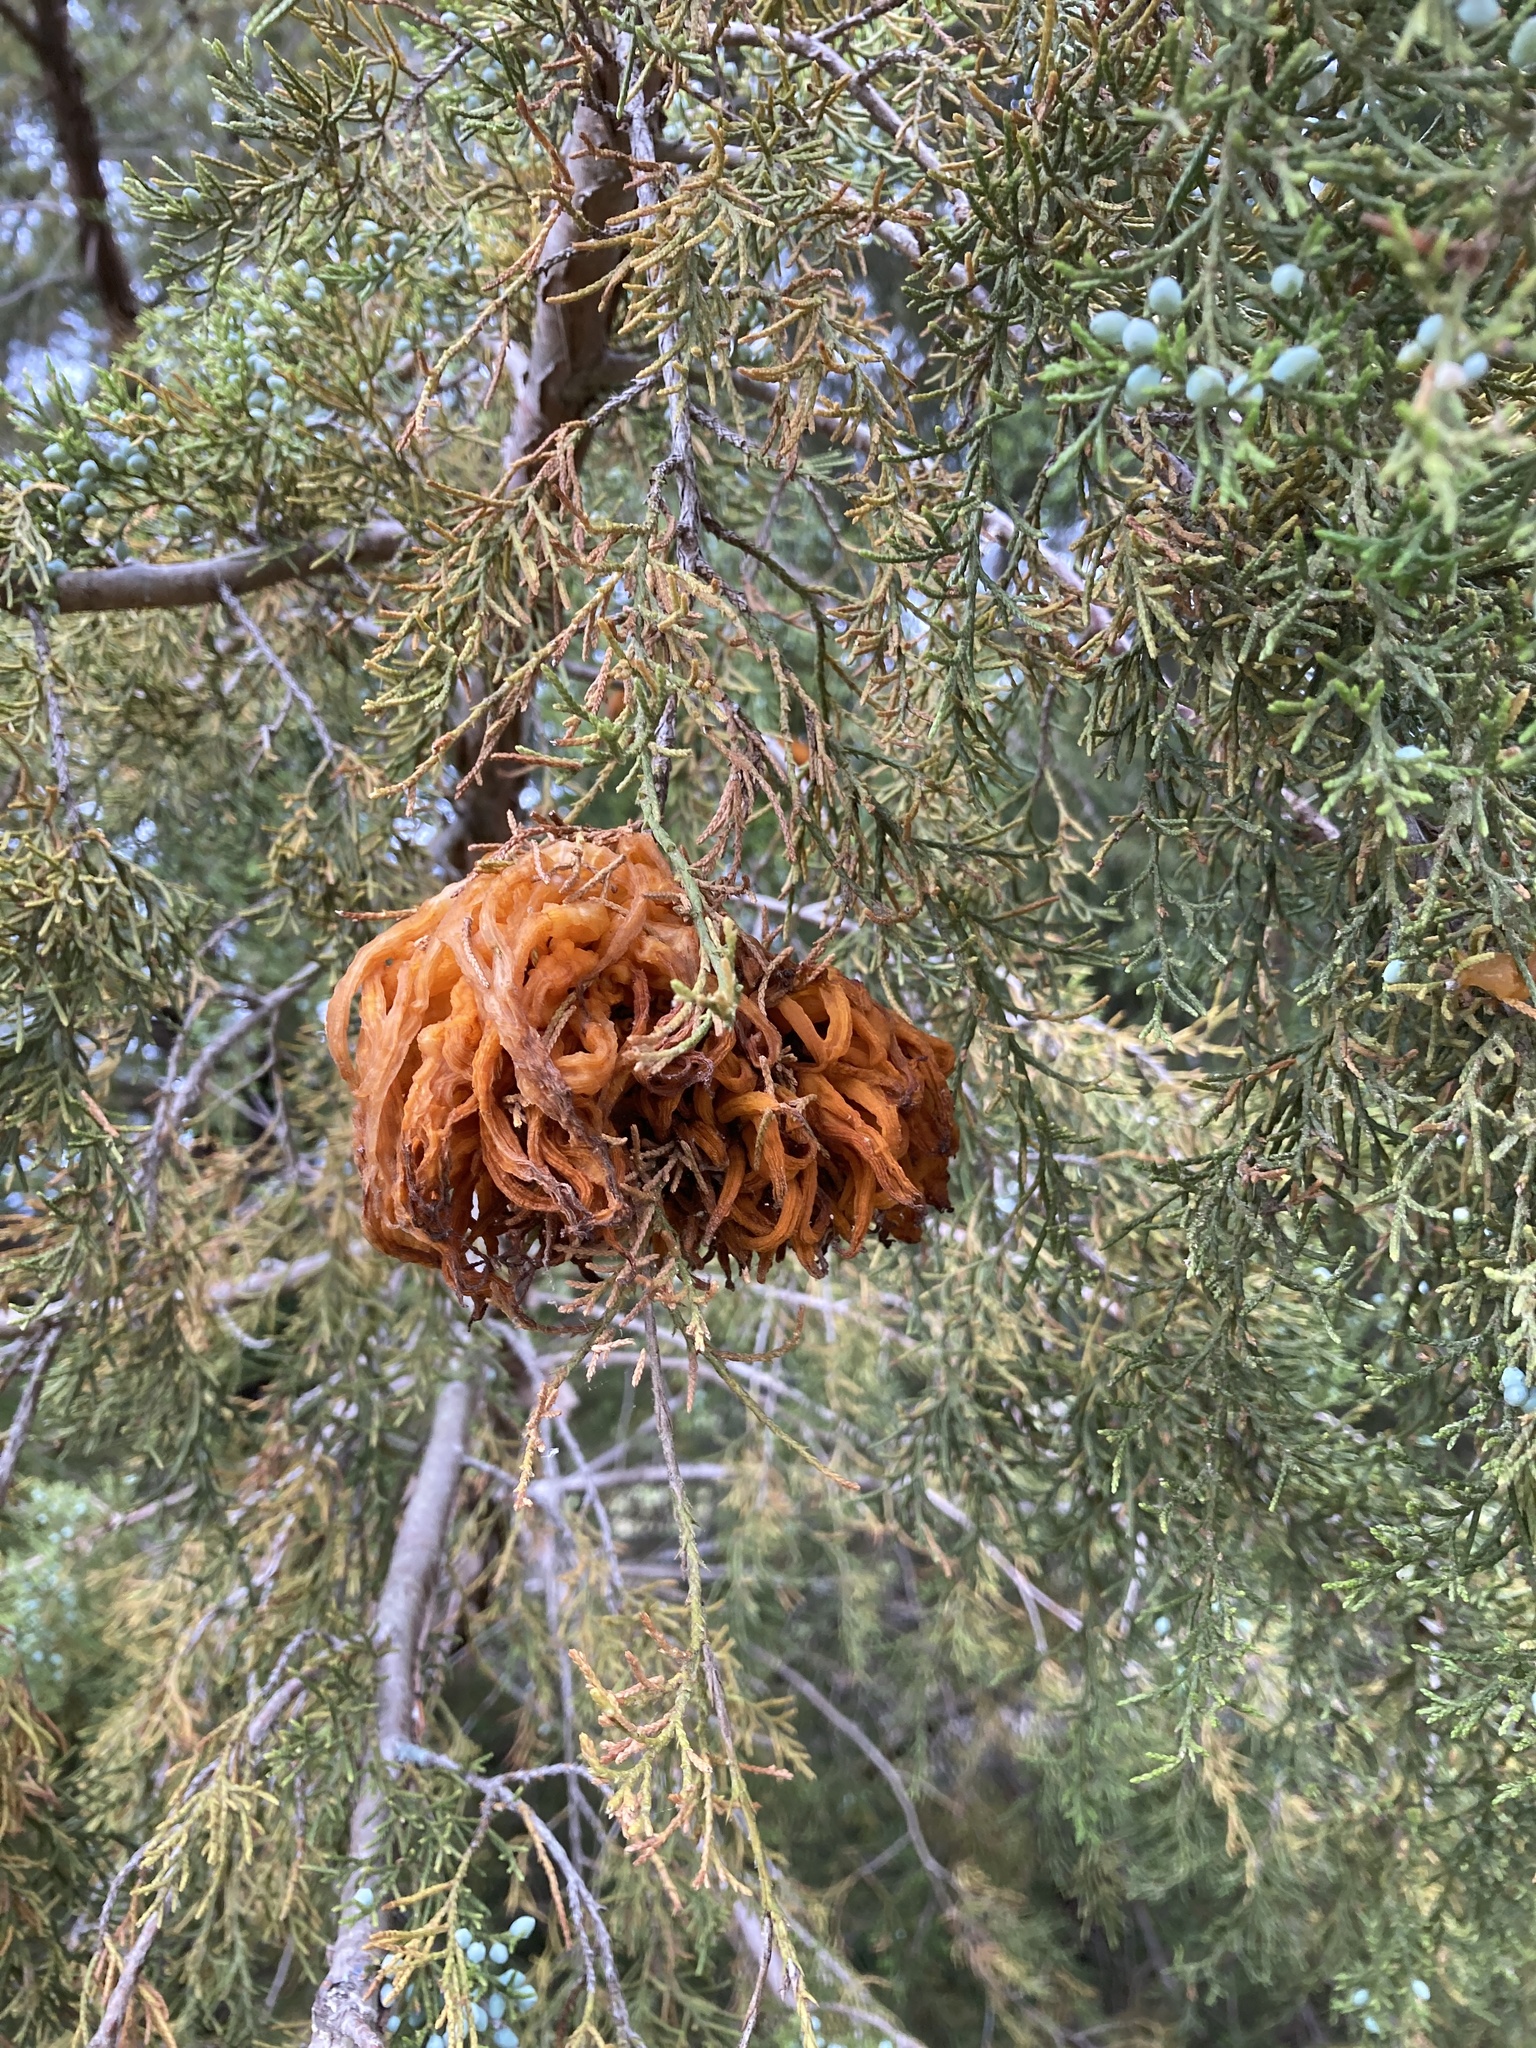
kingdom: Fungi
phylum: Basidiomycota
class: Pucciniomycetes
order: Pucciniales
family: Gymnosporangiaceae
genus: Gymnosporangium
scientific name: Gymnosporangium juniperi-virginianae
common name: Juniper-apple rust
